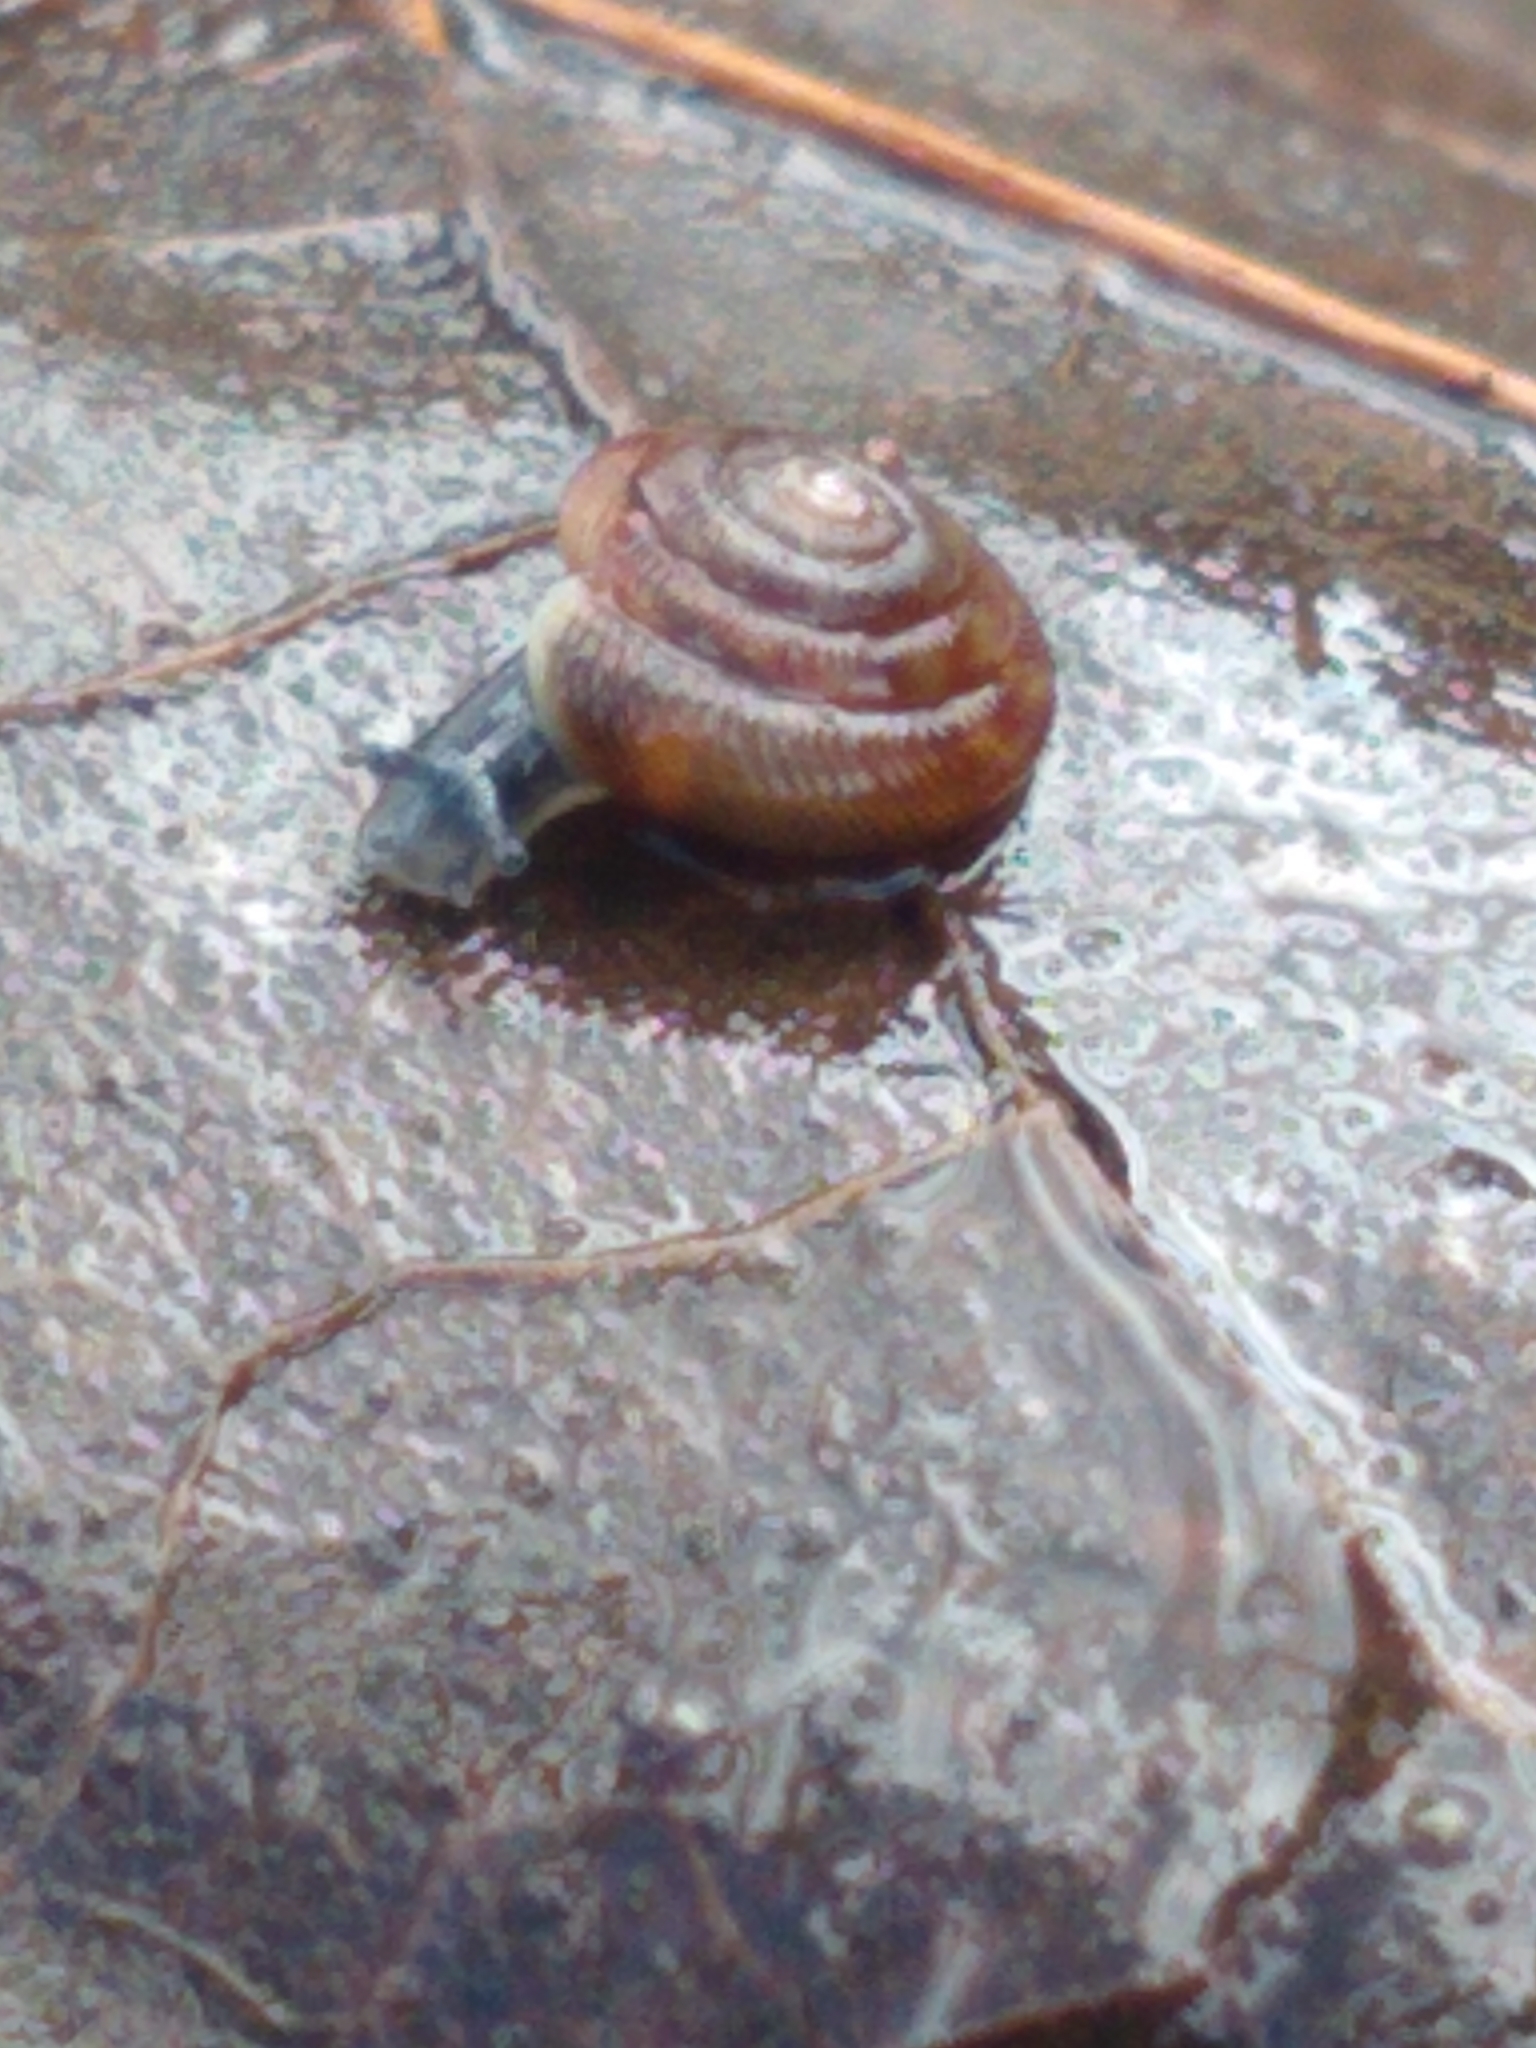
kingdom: Animalia
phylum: Mollusca
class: Gastropoda
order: Stylommatophora
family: Discidae
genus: Discus
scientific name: Discus rotundatus
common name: Rounded snail
